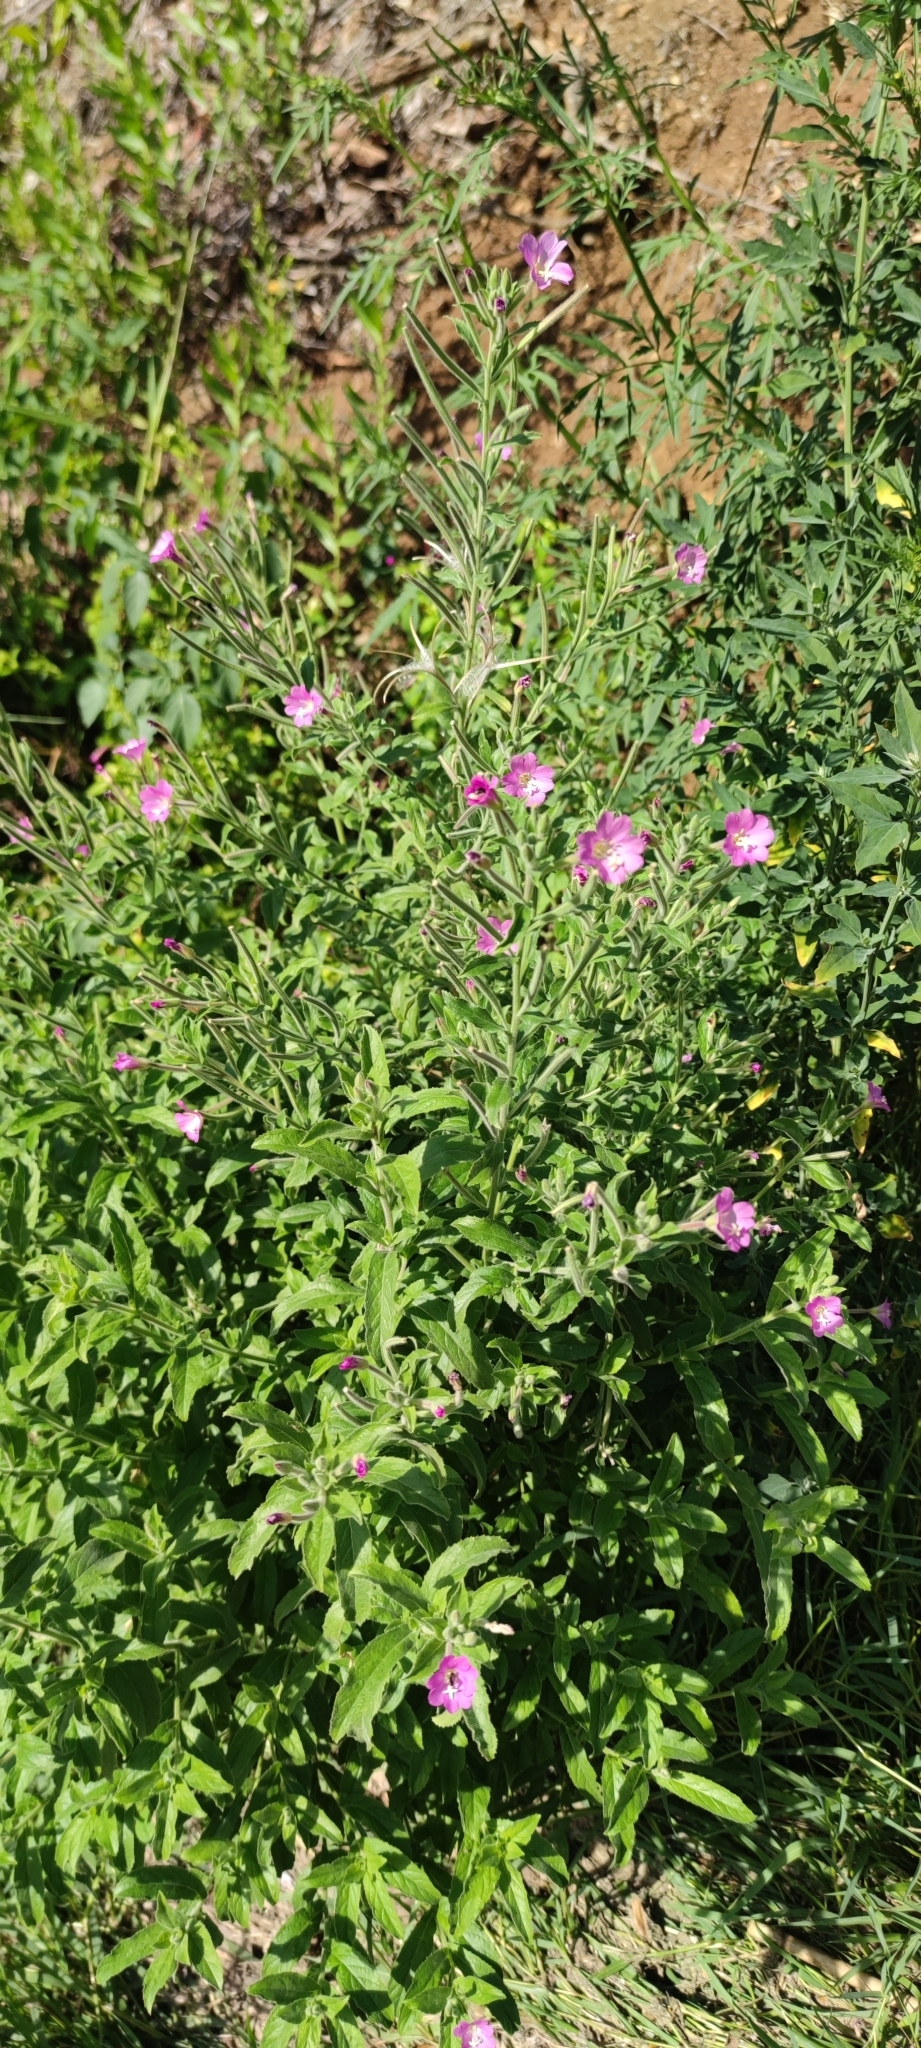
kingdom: Plantae
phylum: Tracheophyta
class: Magnoliopsida
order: Myrtales
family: Onagraceae
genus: Epilobium
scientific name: Epilobium hirsutum
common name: Great willowherb
